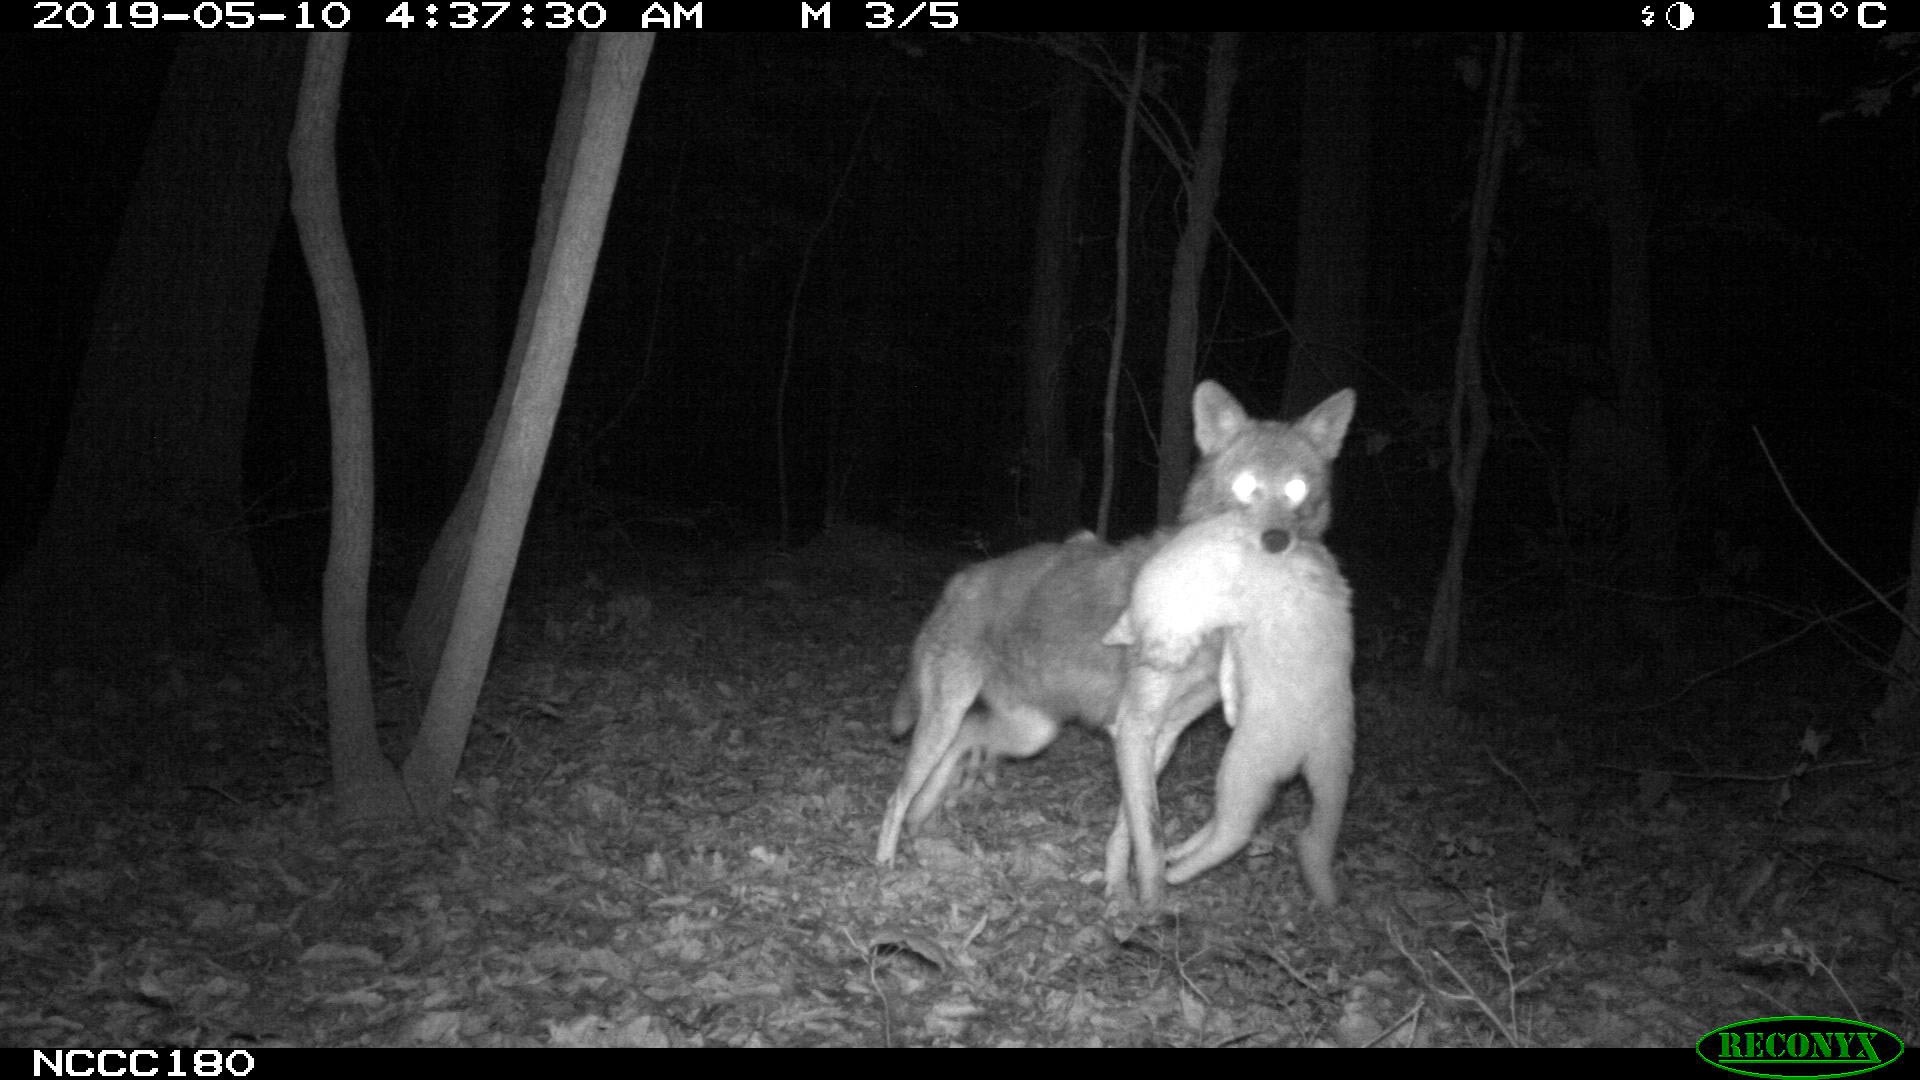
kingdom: Animalia
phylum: Chordata
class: Mammalia
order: Carnivora
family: Canidae
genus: Canis
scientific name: Canis latrans
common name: Coyote
